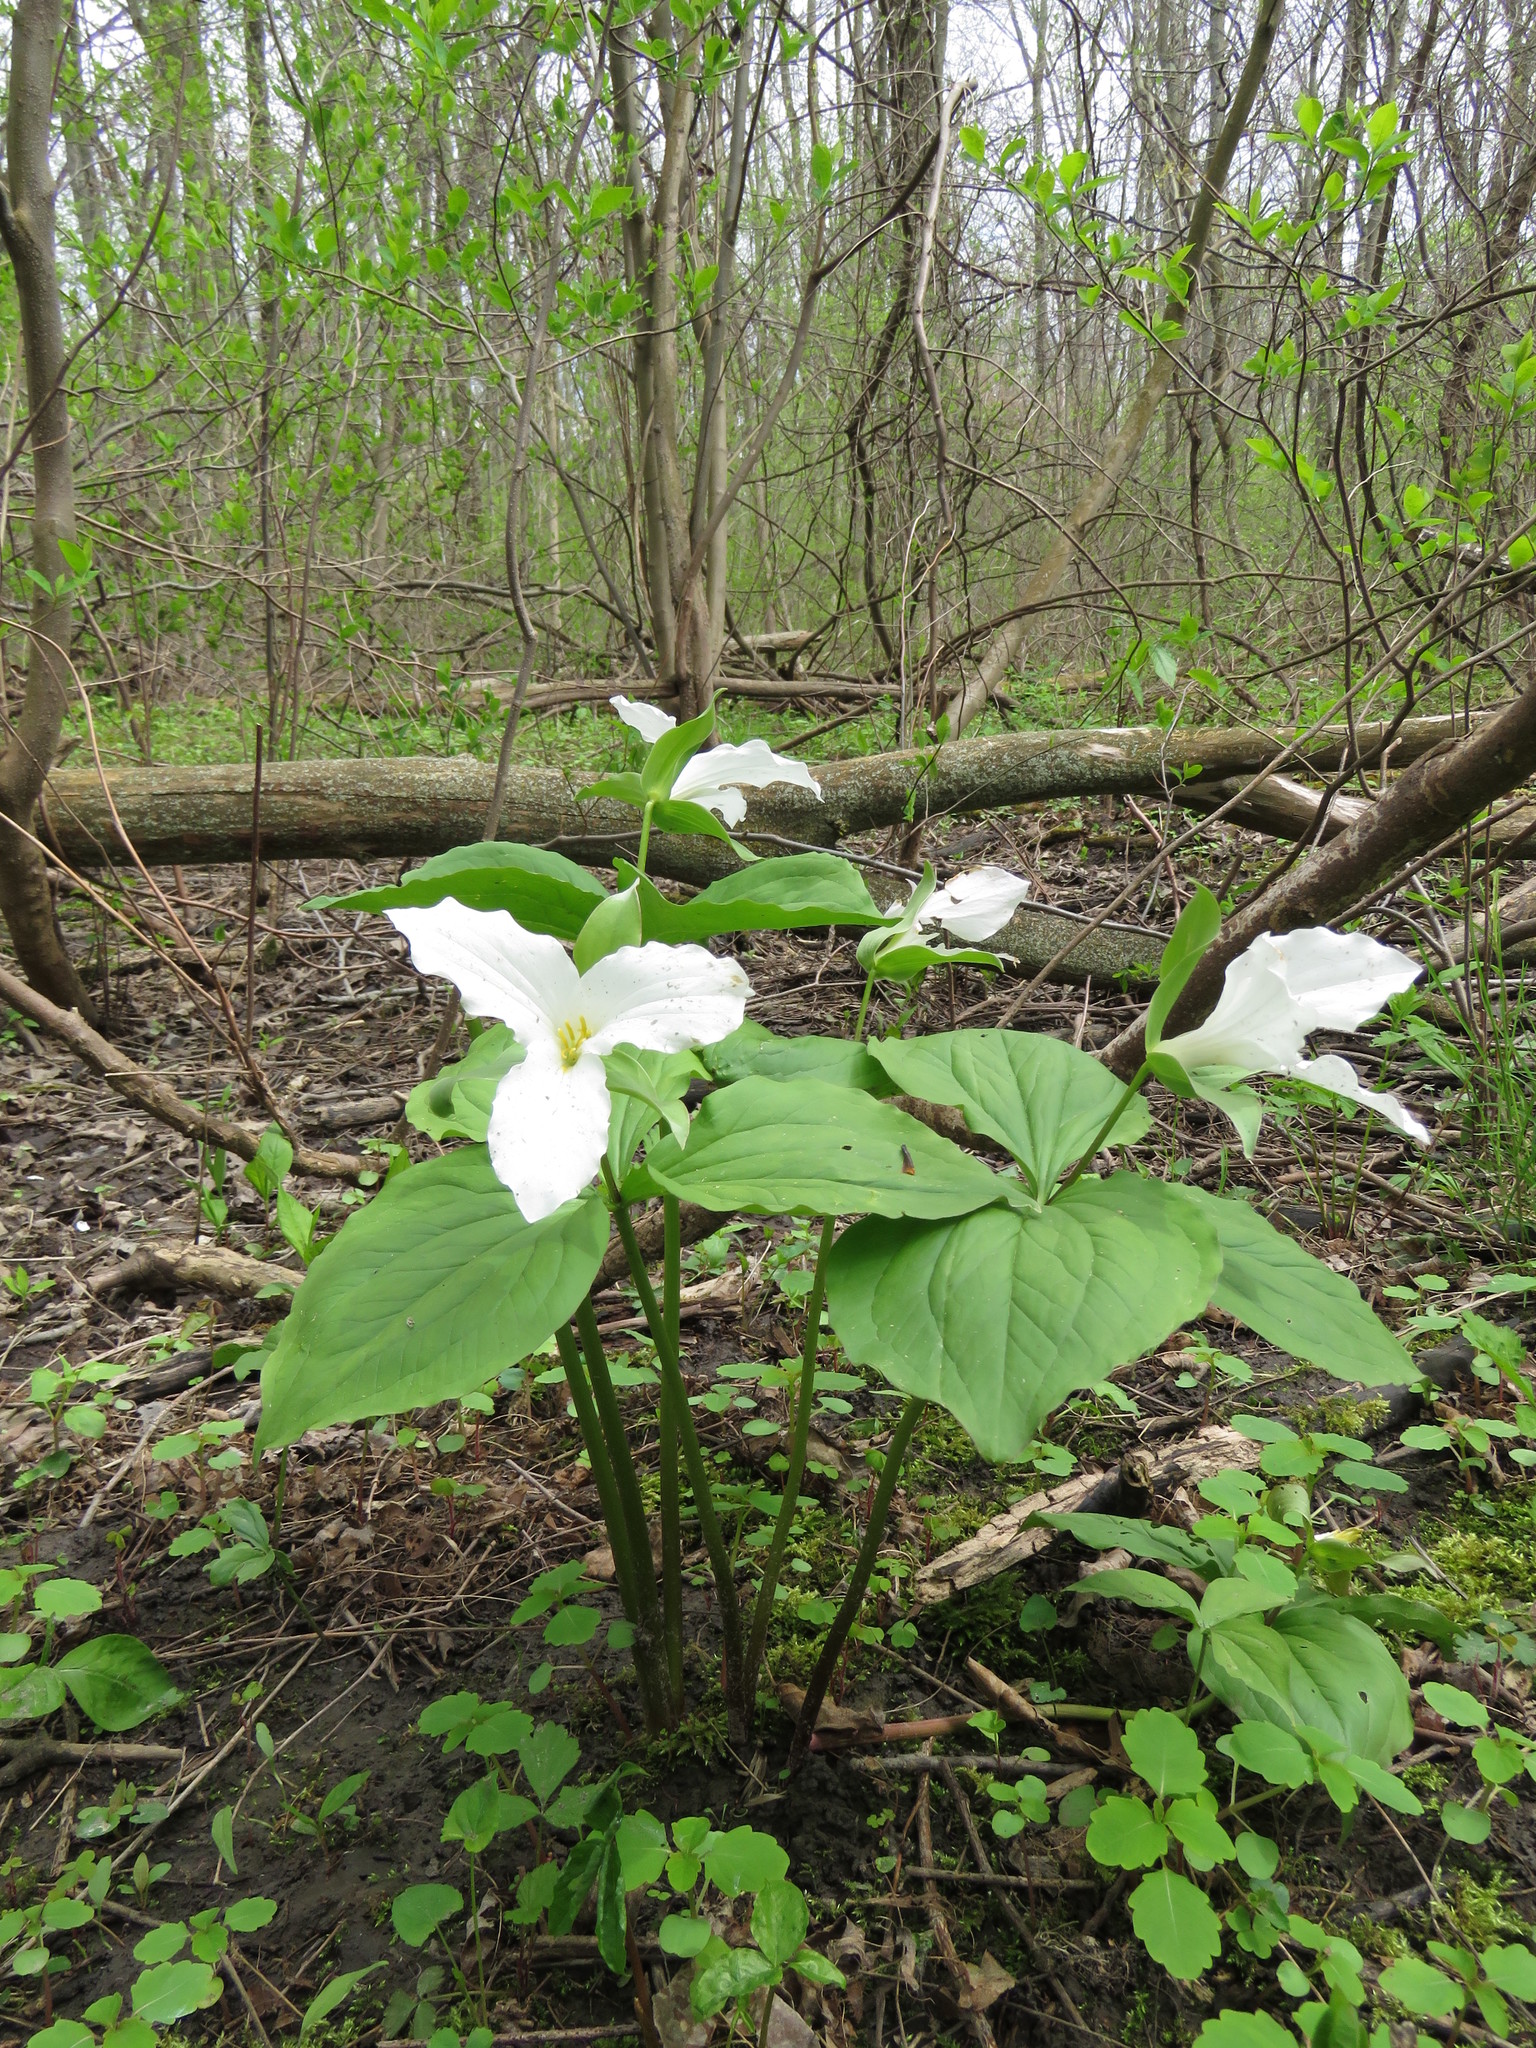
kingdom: Plantae
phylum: Tracheophyta
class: Liliopsida
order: Liliales
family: Melanthiaceae
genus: Trillium
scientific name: Trillium grandiflorum
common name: Great white trillium
